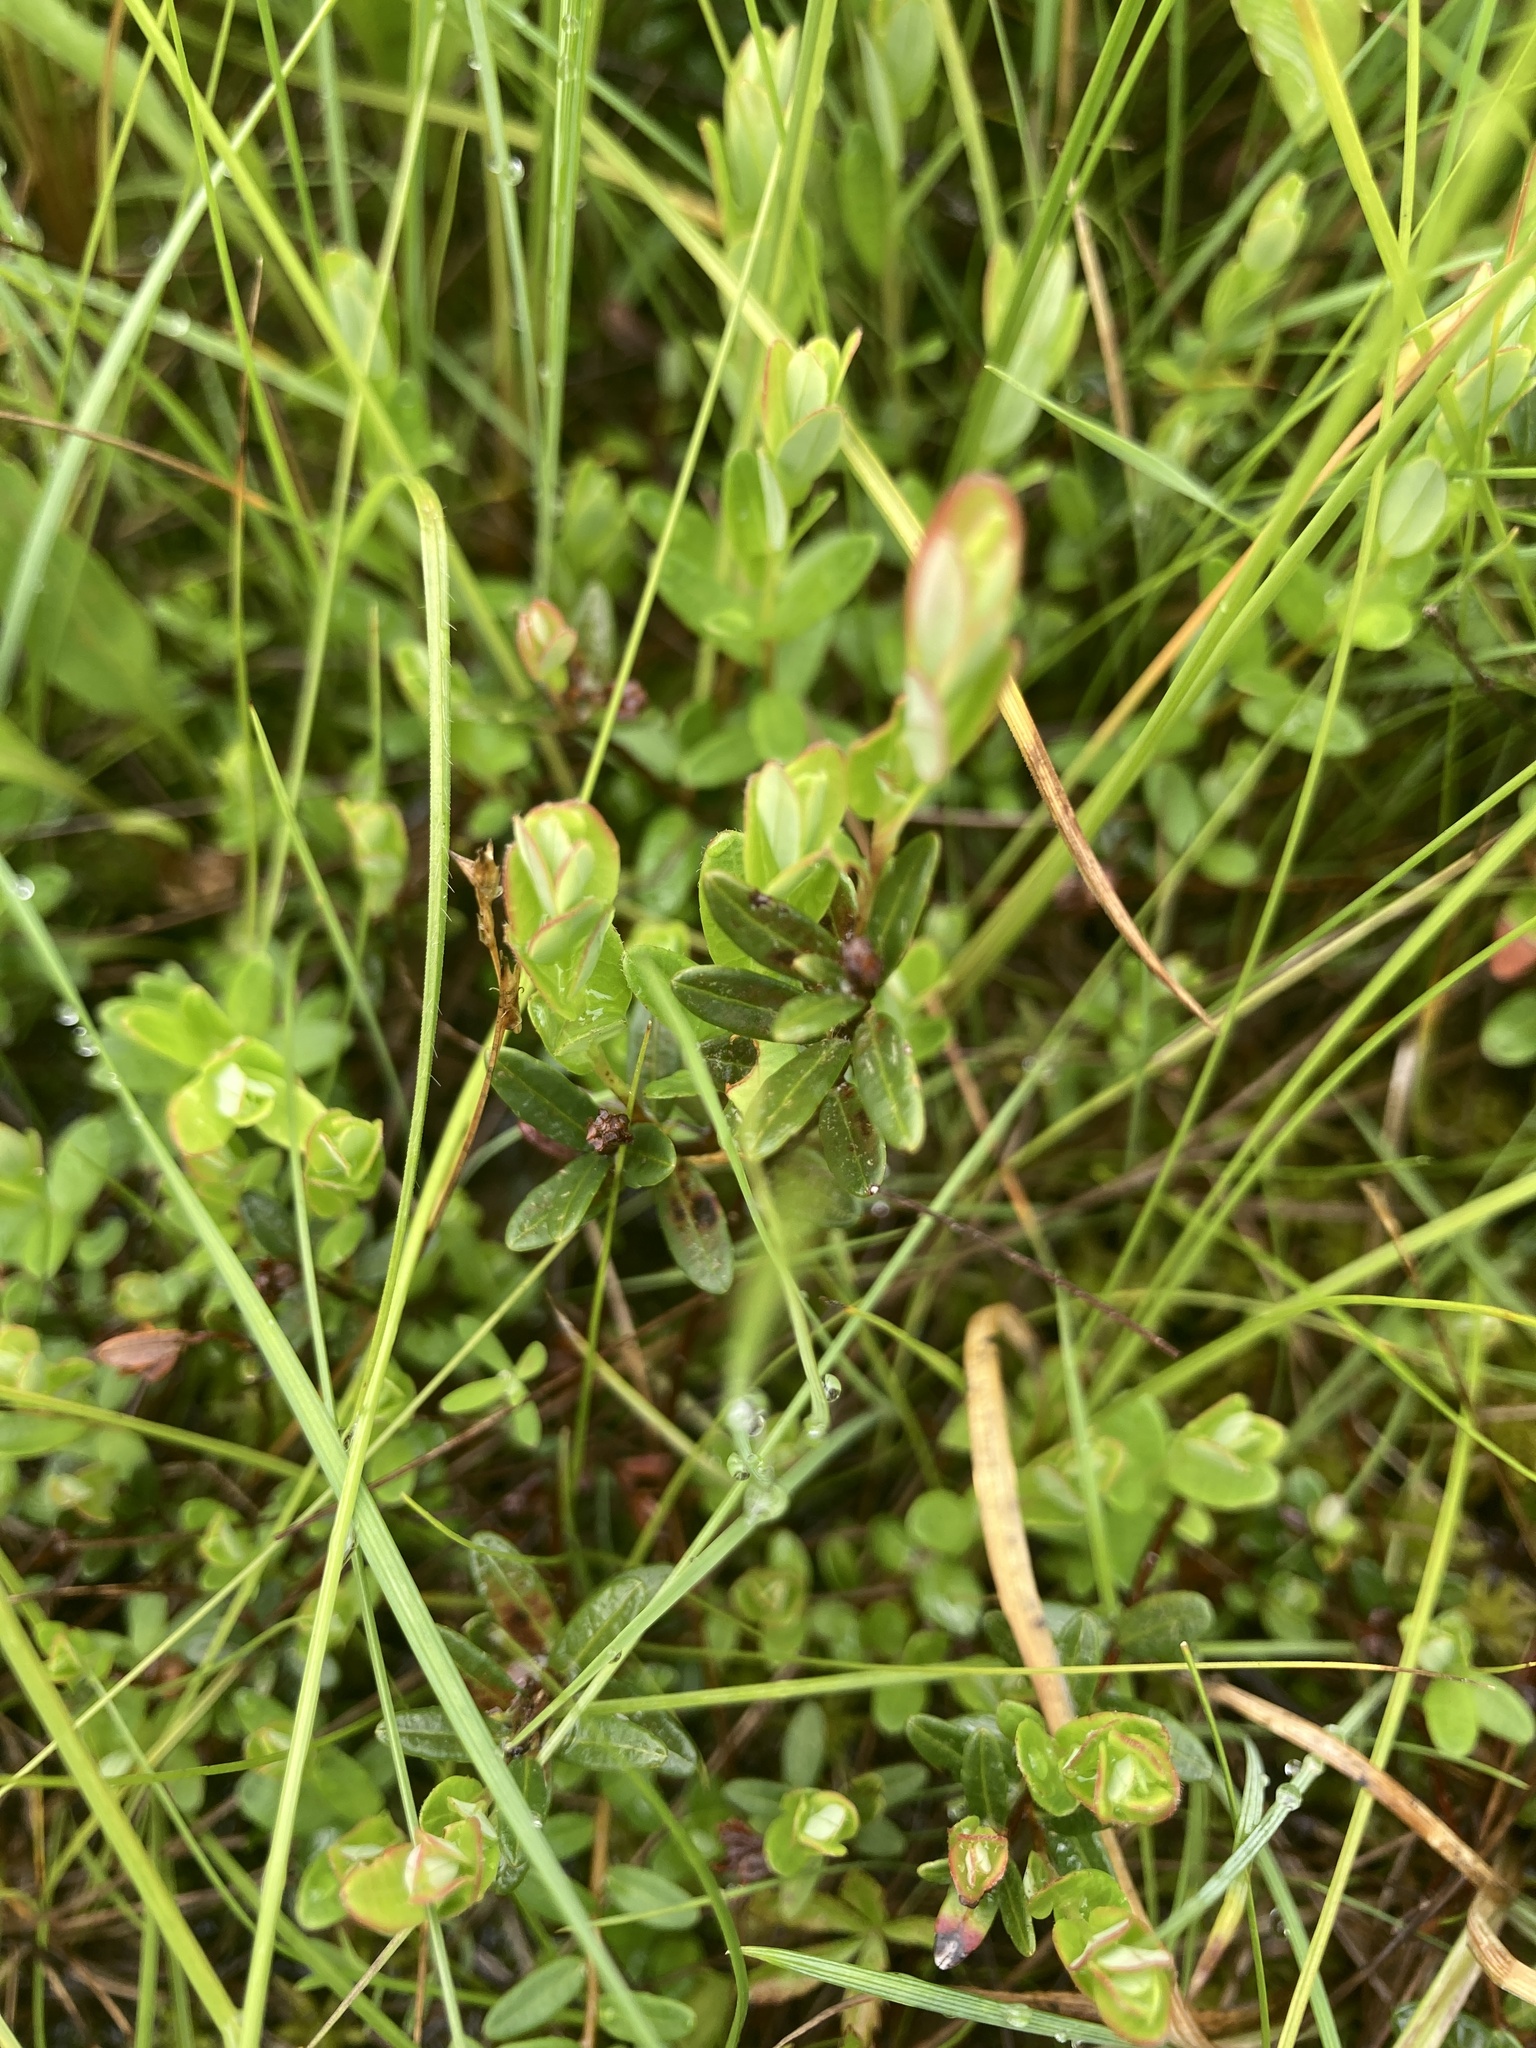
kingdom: Plantae
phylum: Tracheophyta
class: Magnoliopsida
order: Ericales
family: Ericaceae
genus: Vaccinium
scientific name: Vaccinium macrocarpon
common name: American cranberry
